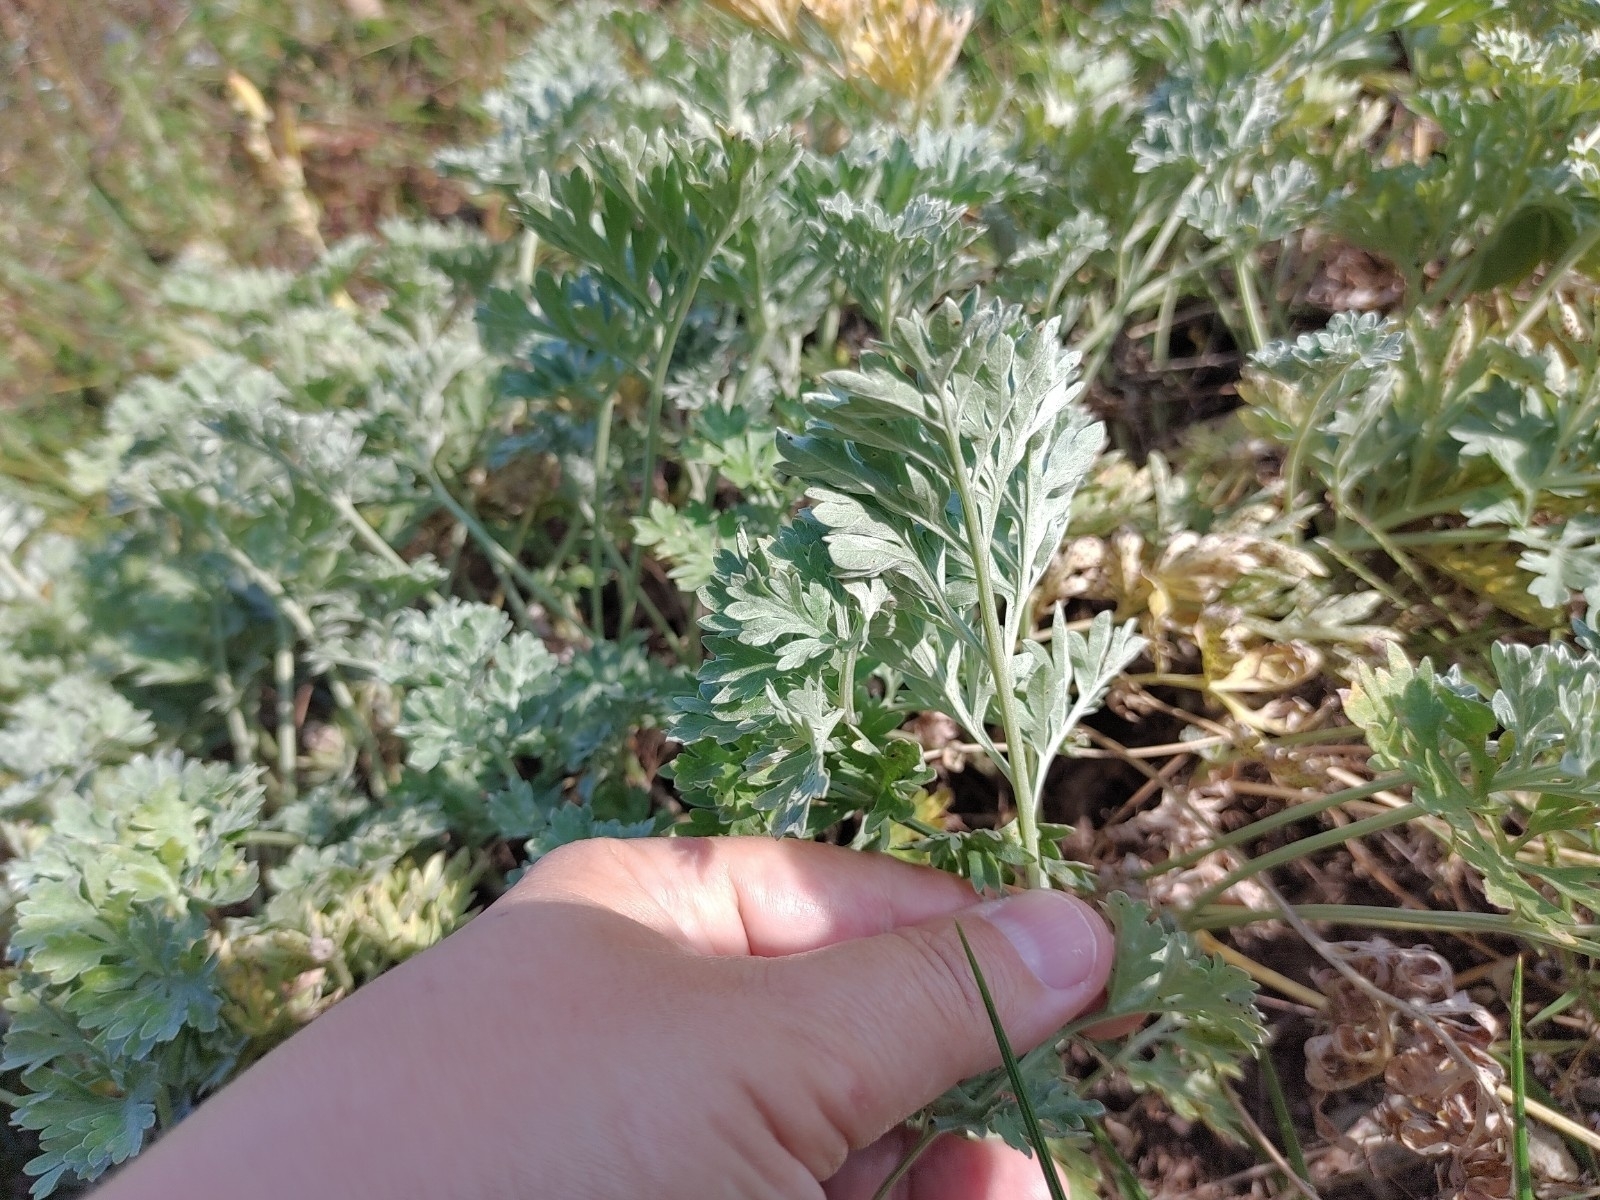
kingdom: Plantae
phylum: Tracheophyta
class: Magnoliopsida
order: Asterales
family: Asteraceae
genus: Artemisia
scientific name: Artemisia absinthium
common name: Wormwood
